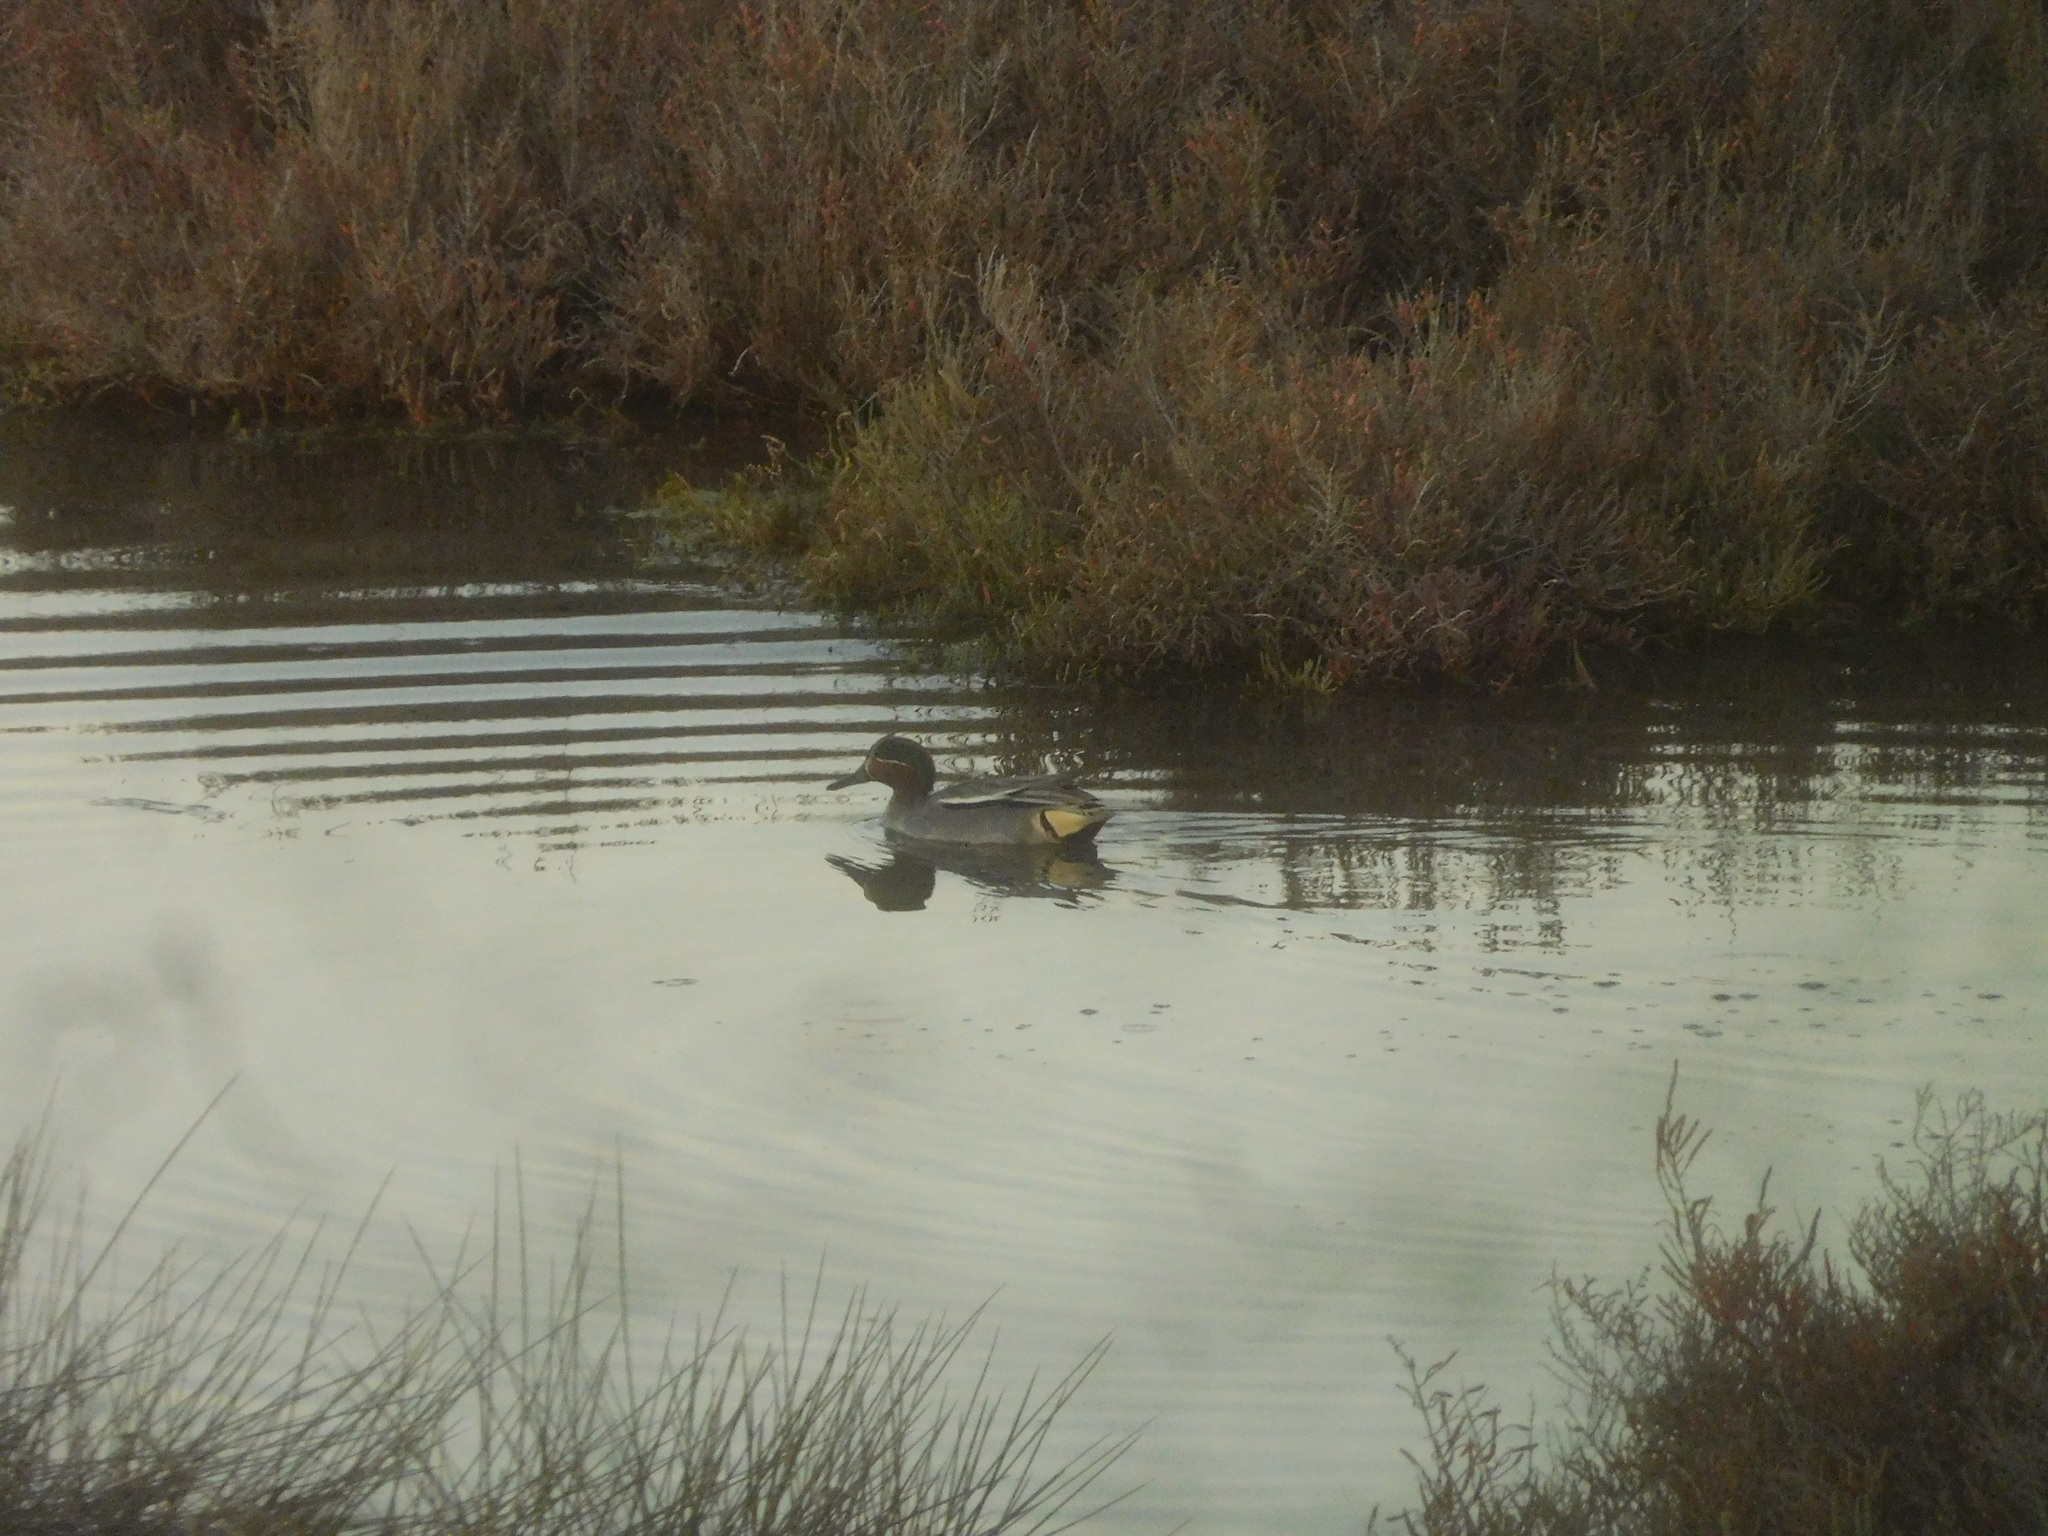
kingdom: Animalia
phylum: Chordata
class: Aves
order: Anseriformes
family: Anatidae
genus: Anas
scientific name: Anas crecca
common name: Eurasian teal
